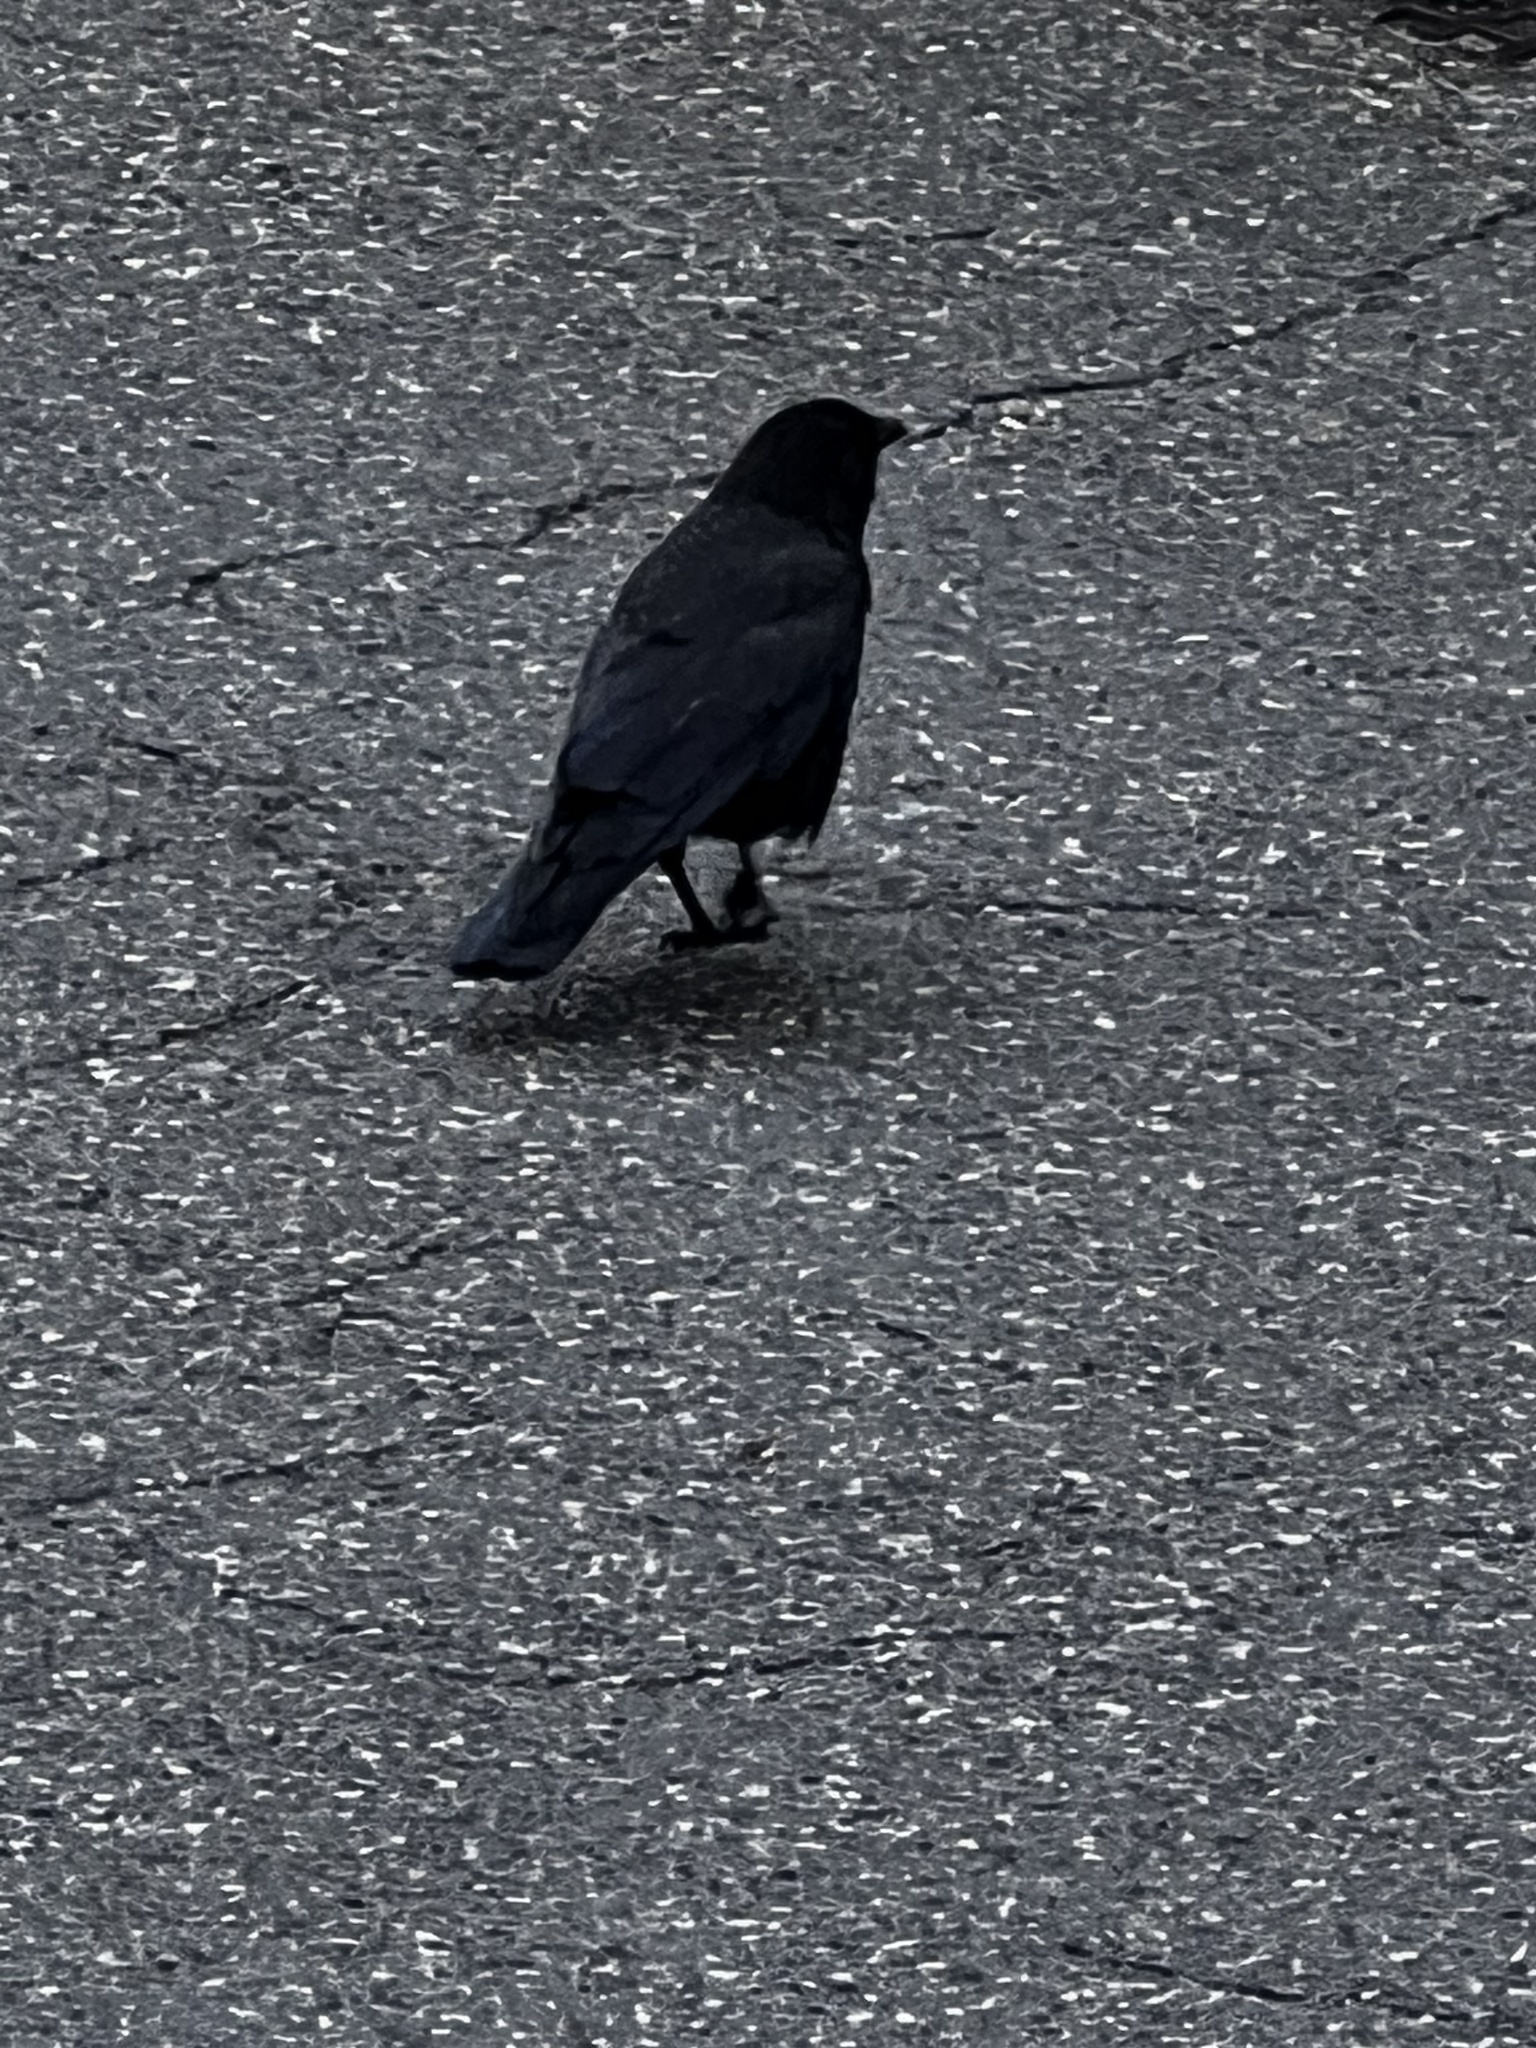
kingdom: Animalia
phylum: Chordata
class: Aves
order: Passeriformes
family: Corvidae
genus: Corvus
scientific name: Corvus brachyrhynchos
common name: American crow
